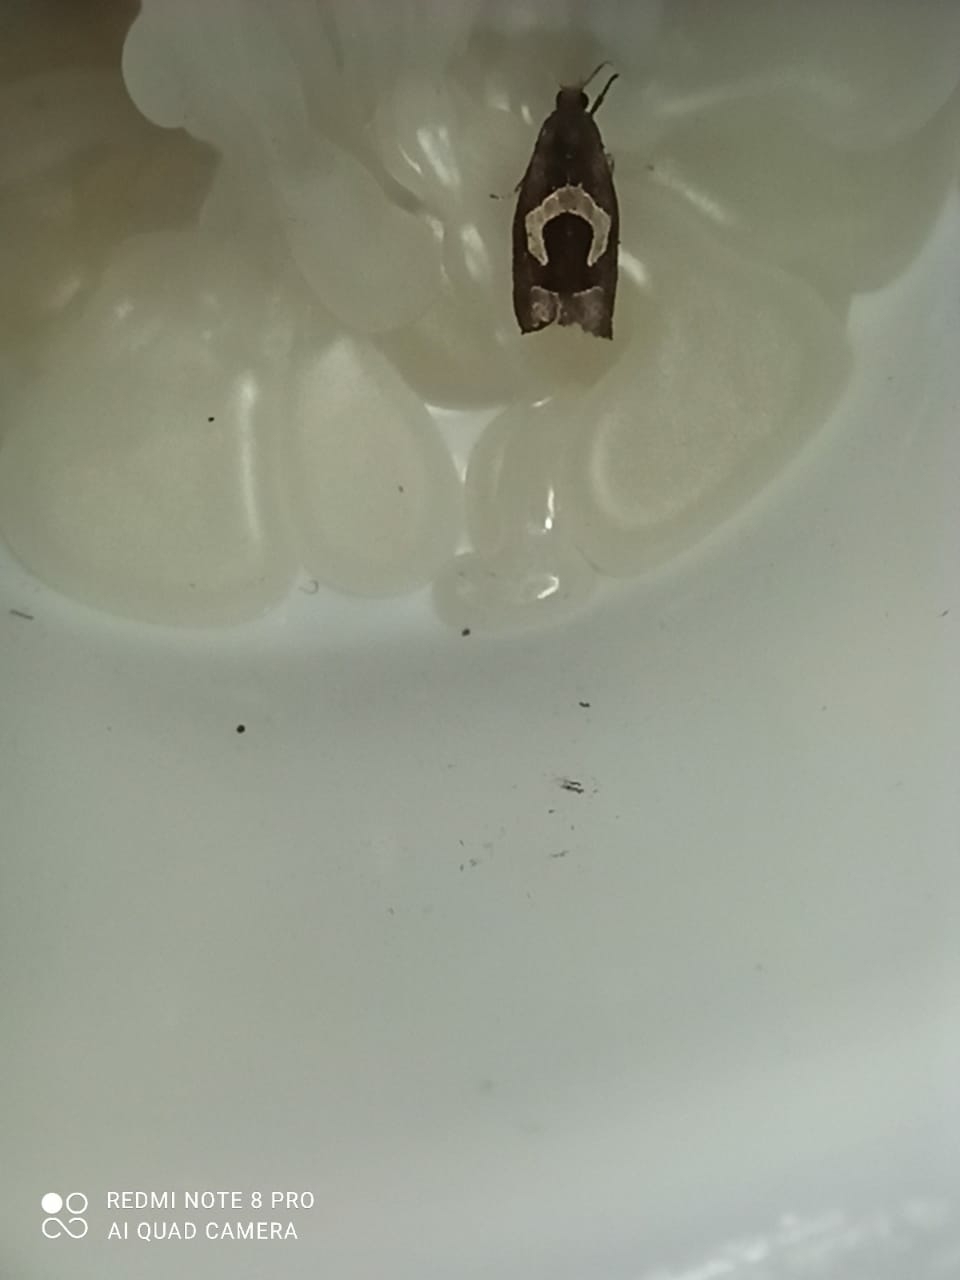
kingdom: Animalia
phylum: Arthropoda
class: Insecta
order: Lepidoptera
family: Tortricidae
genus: Epiblema
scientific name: Epiblema foenella
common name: White-foot bell
